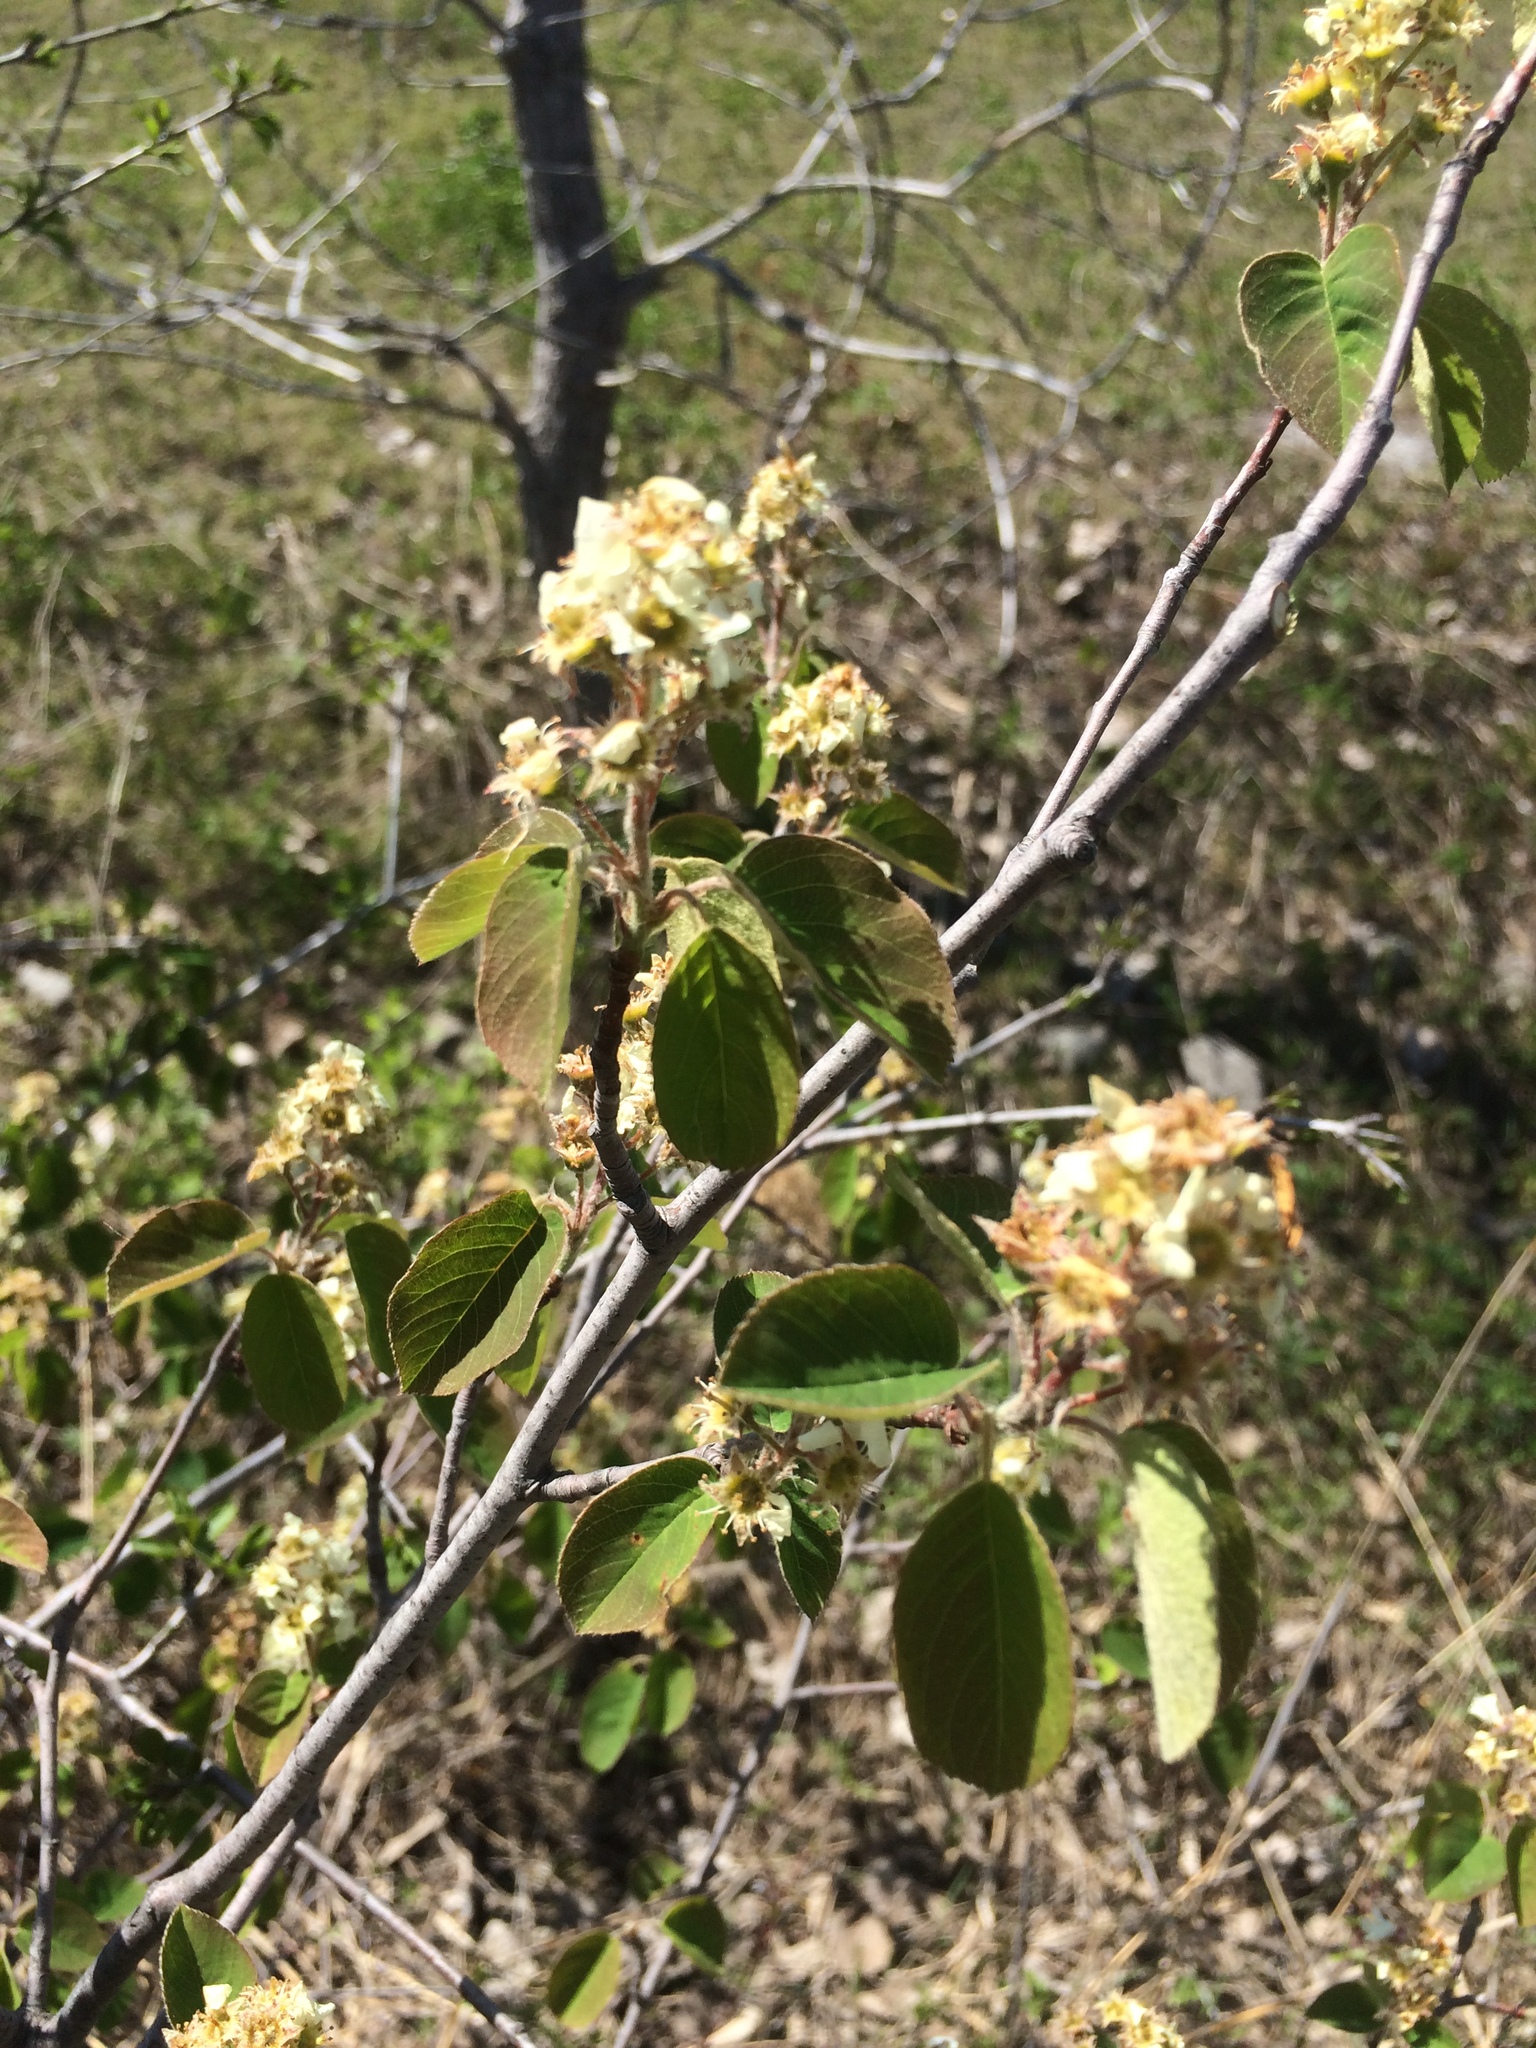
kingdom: Plantae
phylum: Tracheophyta
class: Magnoliopsida
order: Rosales
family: Rosaceae
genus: Amelanchier
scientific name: Amelanchier humilis
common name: Low juneberry
